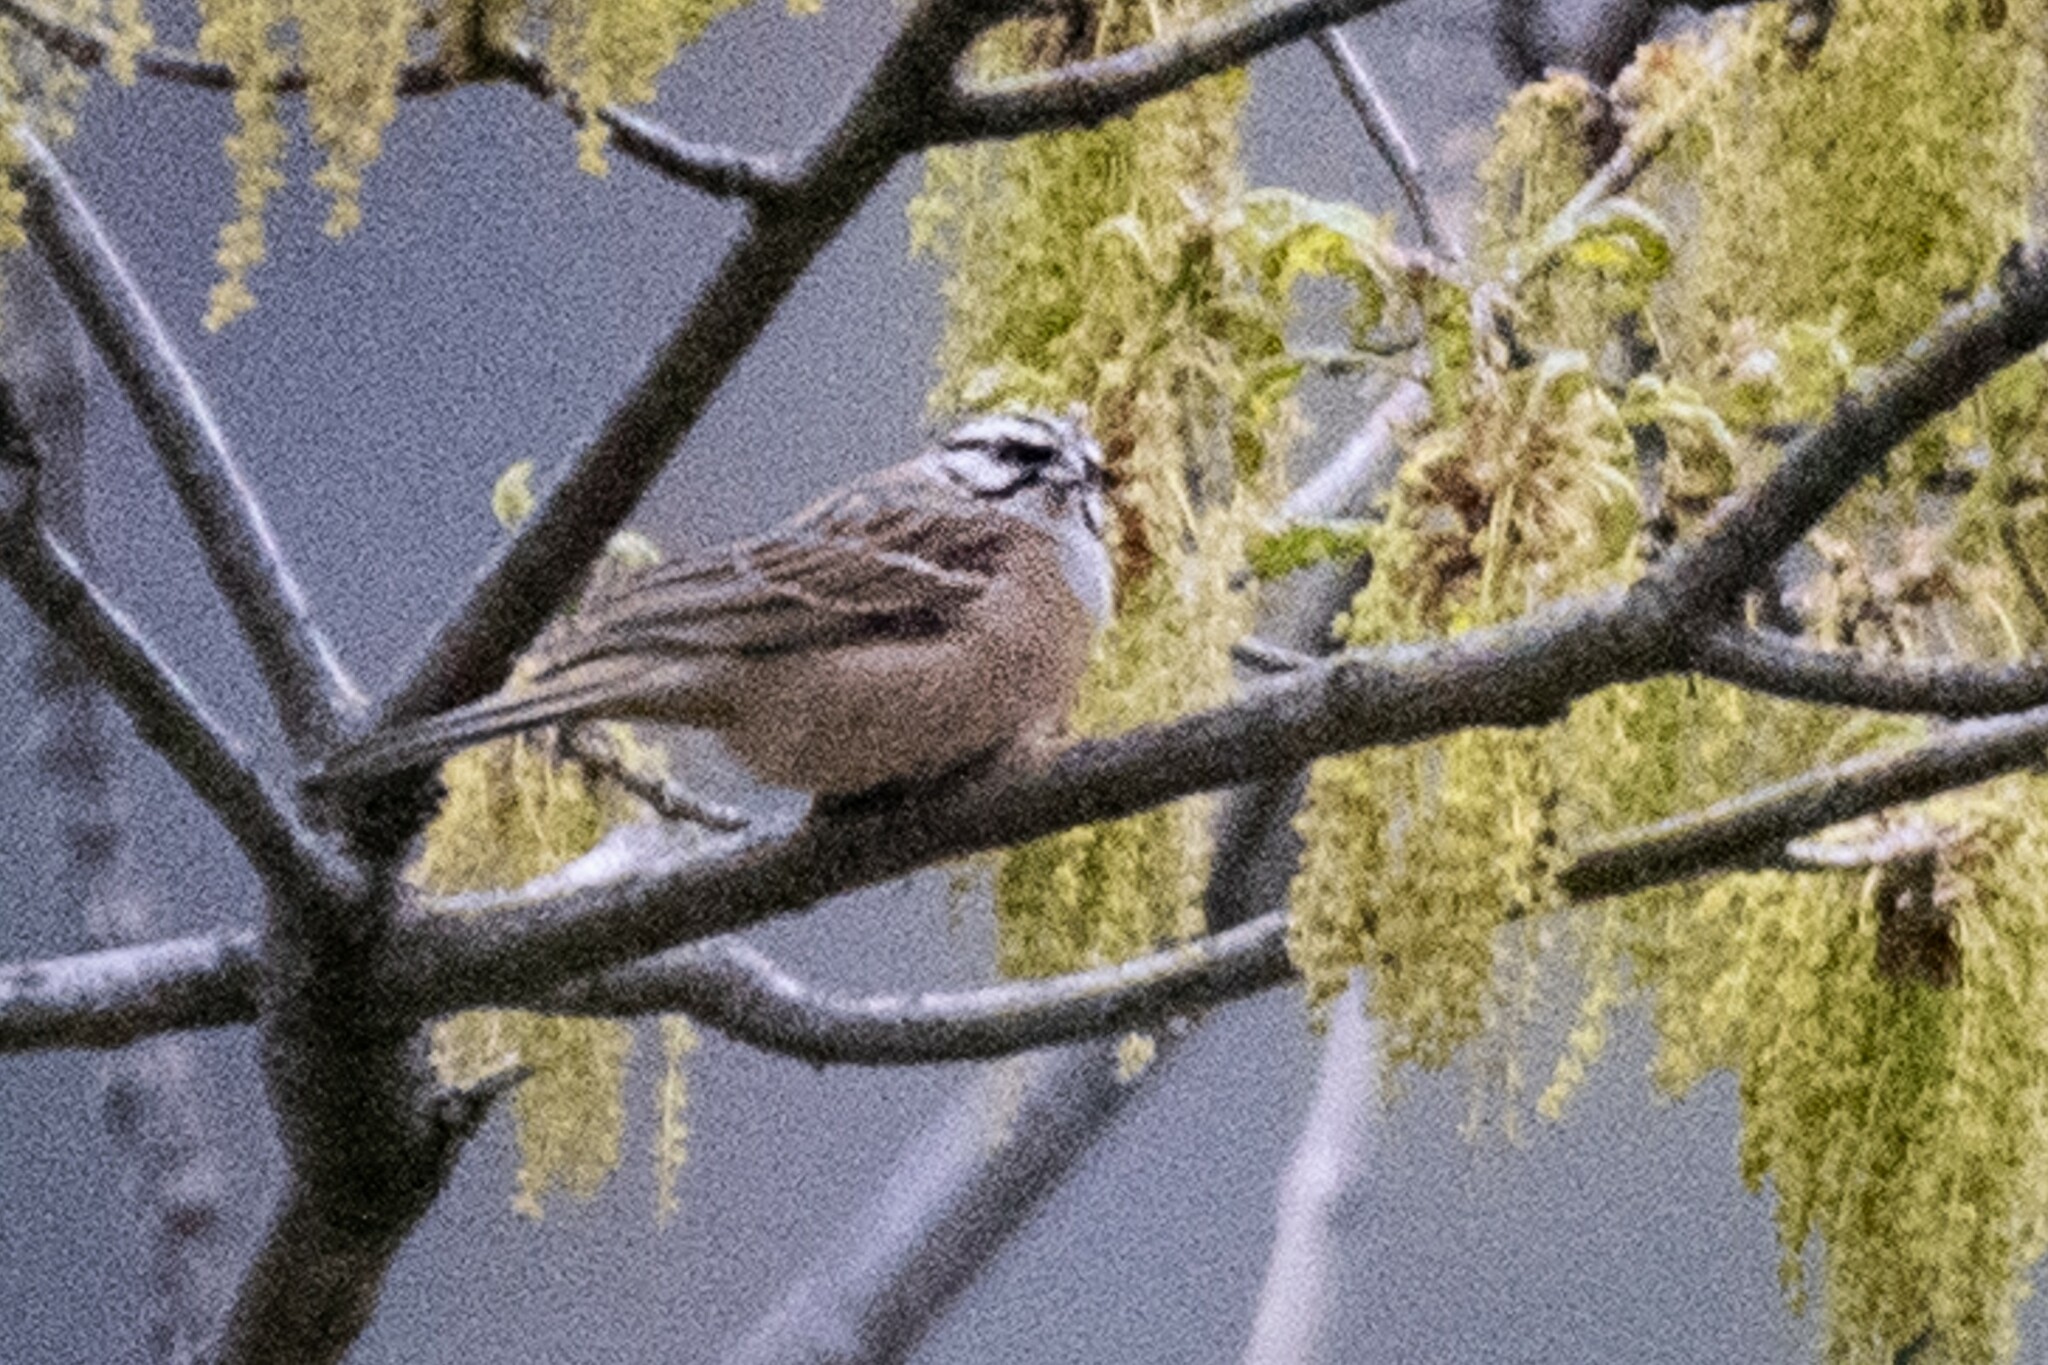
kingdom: Animalia
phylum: Chordata
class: Aves
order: Passeriformes
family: Emberizidae
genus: Emberiza
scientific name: Emberiza cia
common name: Rock bunting
